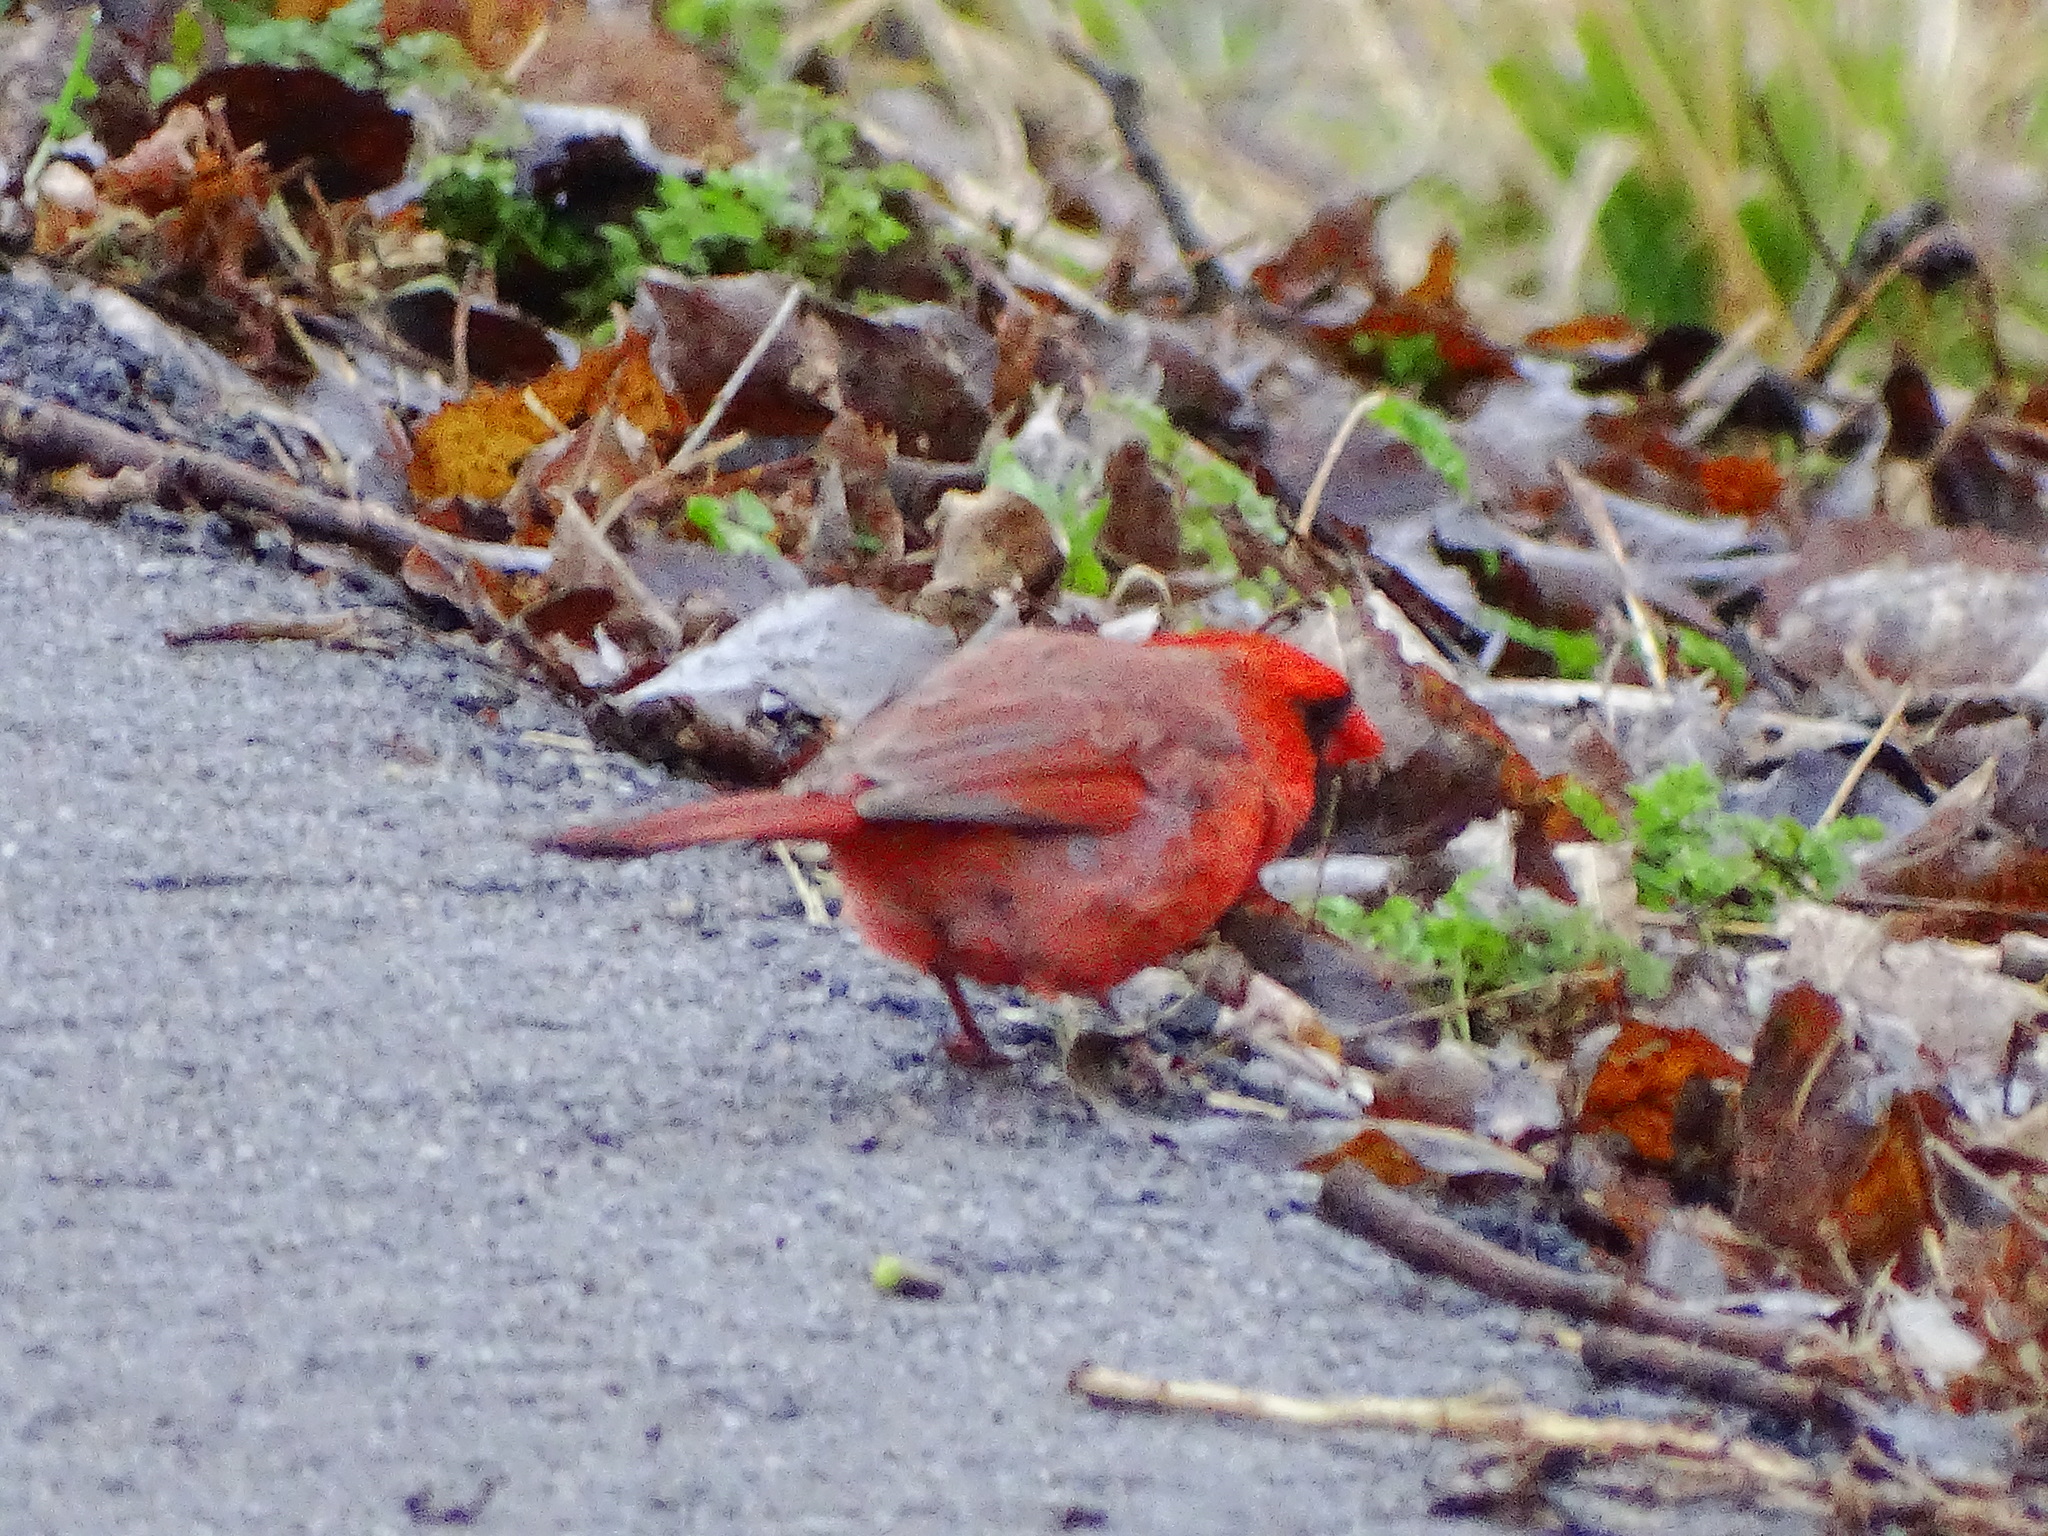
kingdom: Animalia
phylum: Chordata
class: Aves
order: Passeriformes
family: Cardinalidae
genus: Cardinalis
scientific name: Cardinalis cardinalis
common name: Northern cardinal
